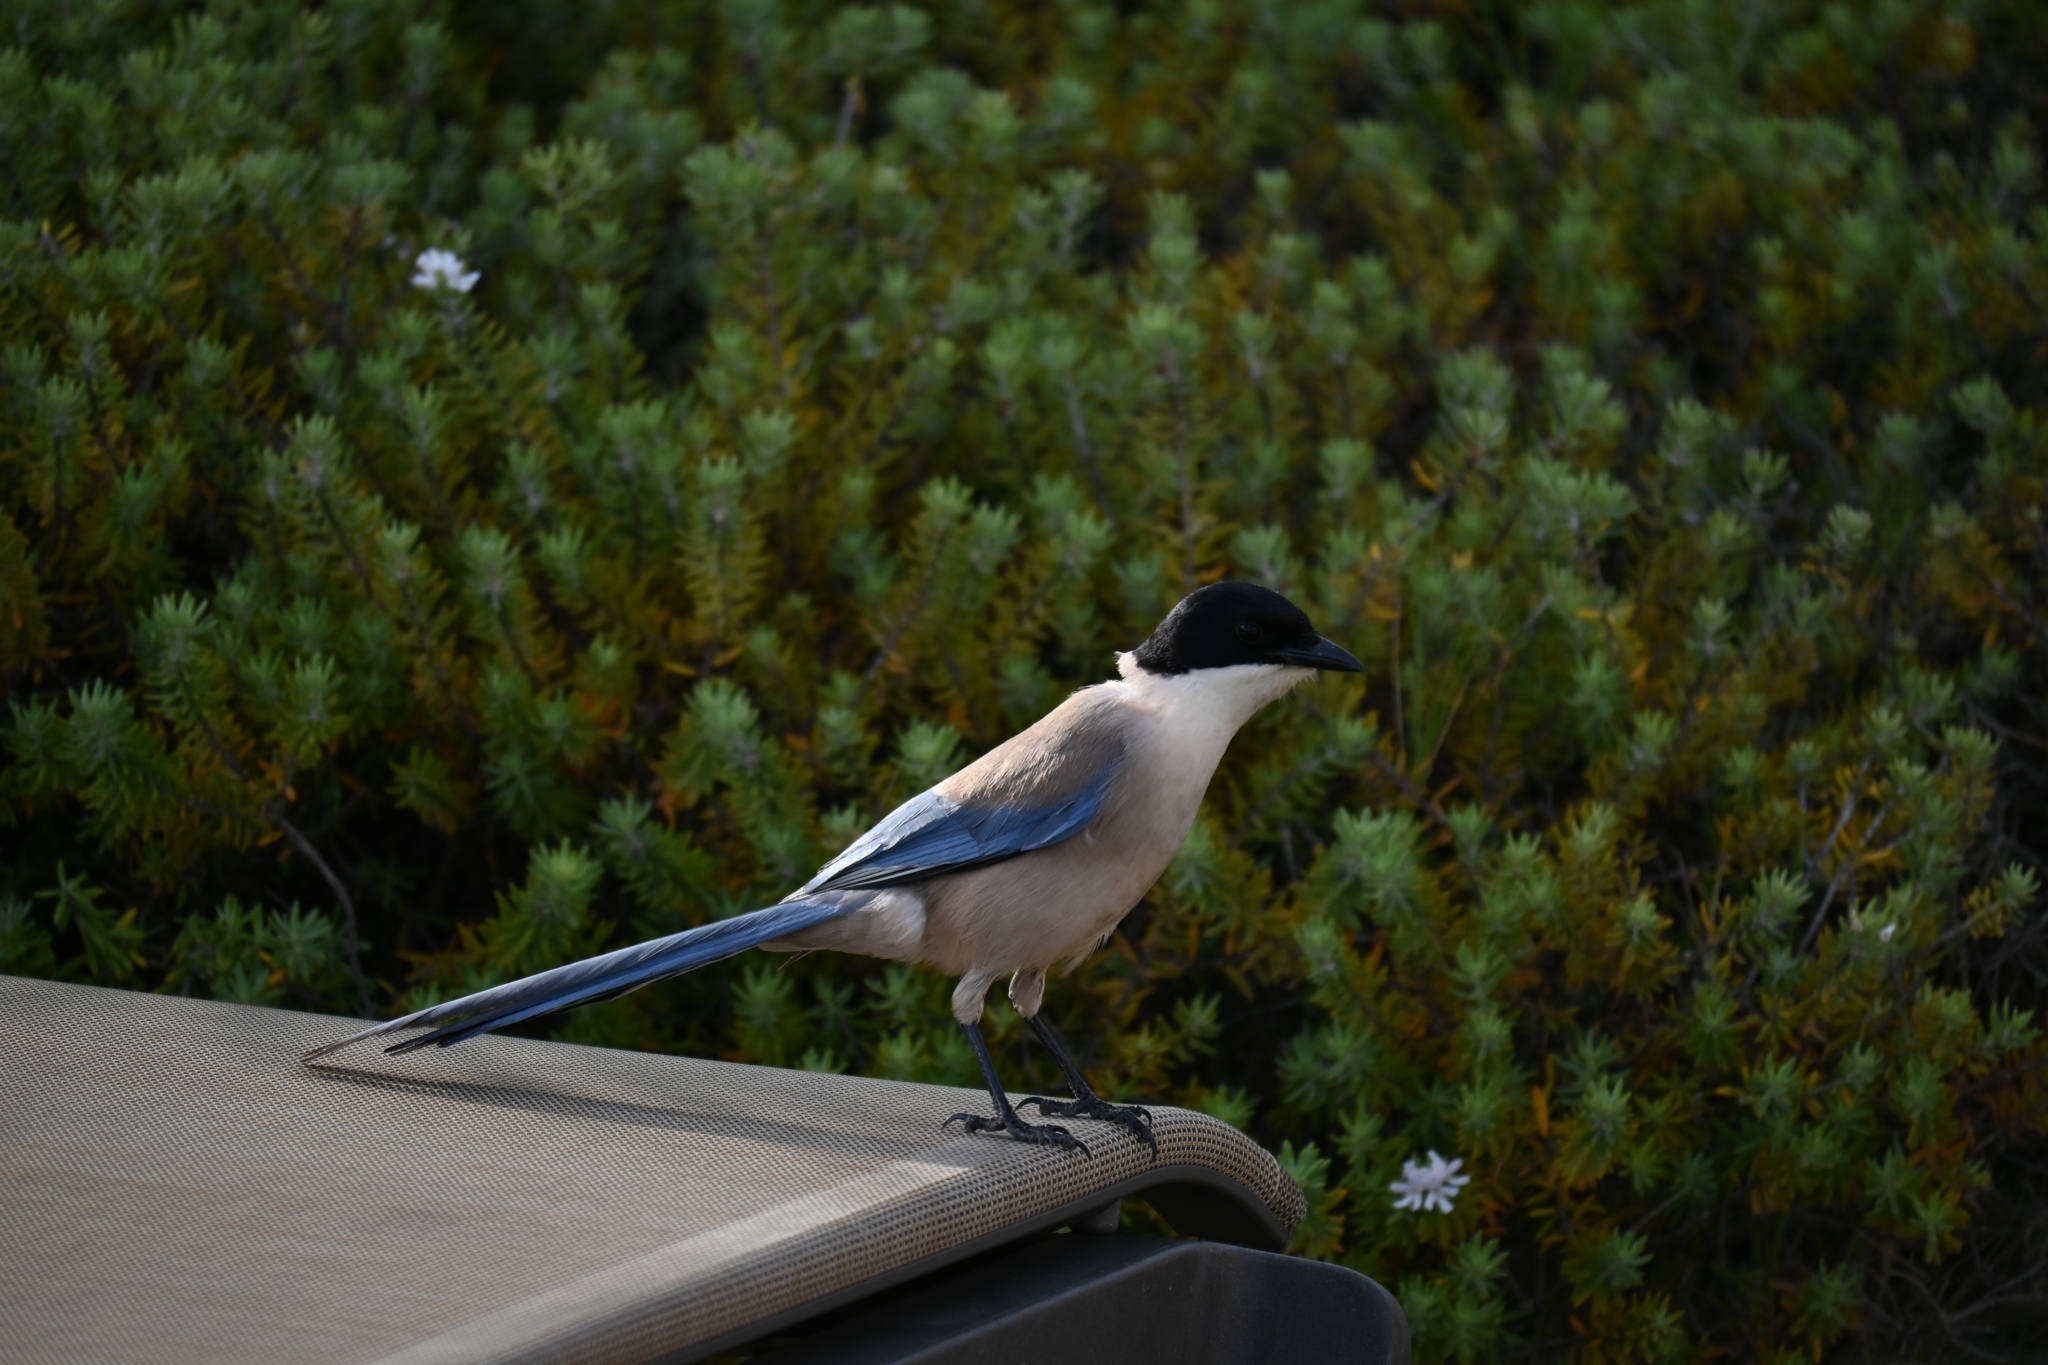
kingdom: Animalia
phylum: Chordata
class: Aves
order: Passeriformes
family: Corvidae
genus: Cyanopica
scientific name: Cyanopica cooki
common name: Iberian magpie
